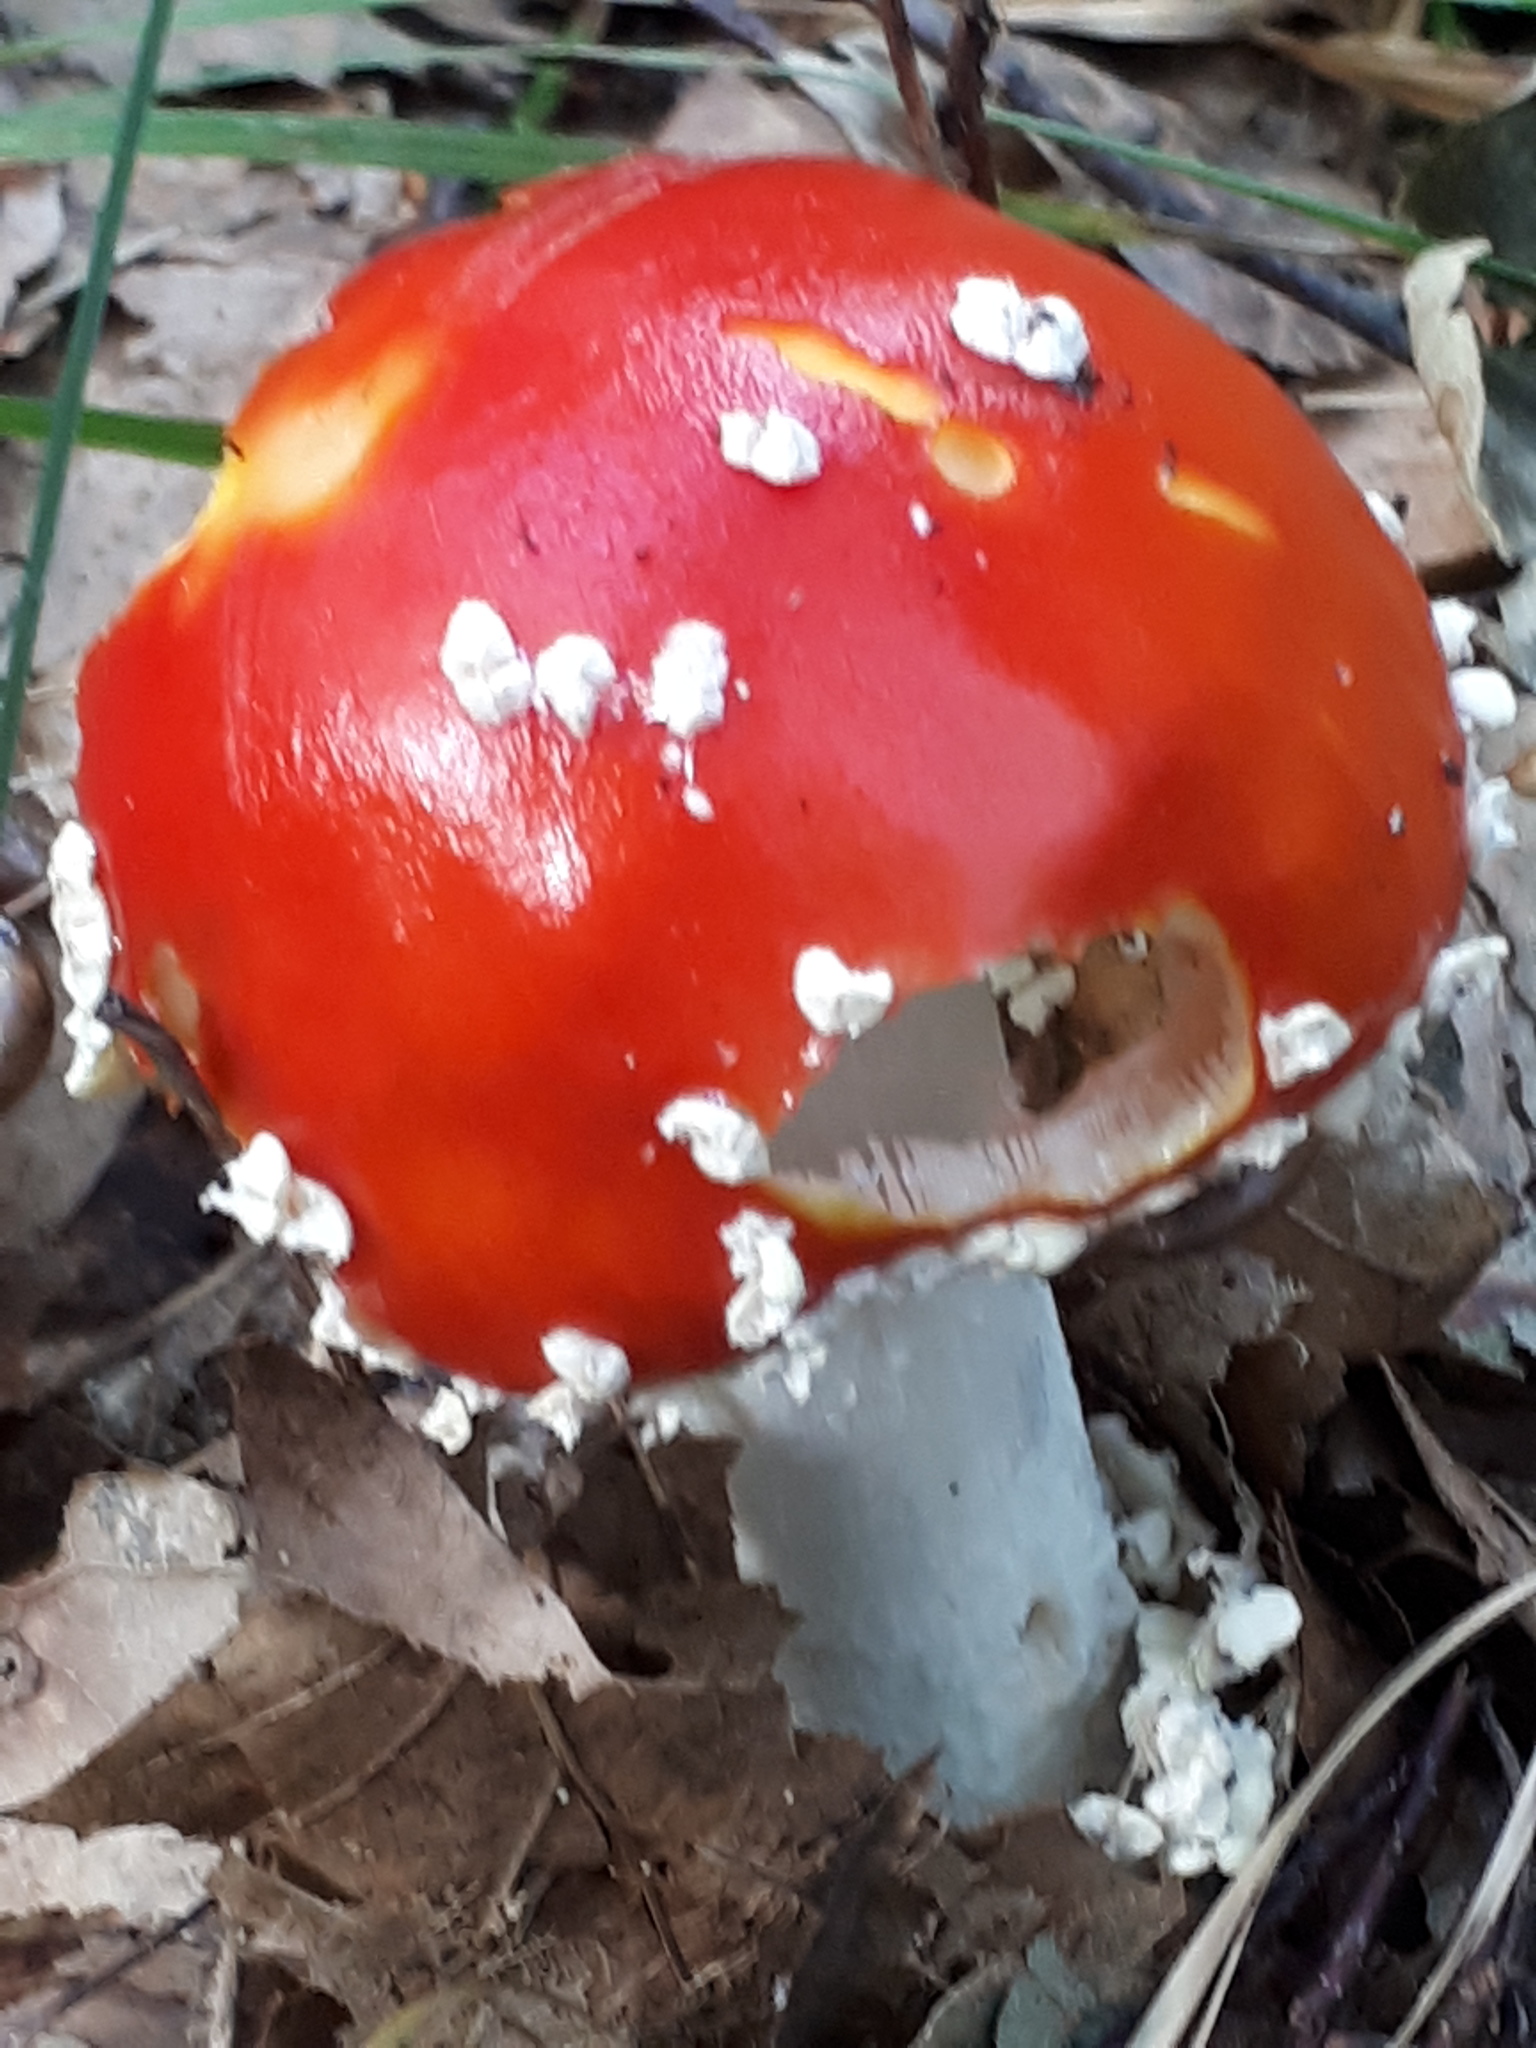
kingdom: Fungi
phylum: Basidiomycota
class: Agaricomycetes
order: Agaricales
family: Amanitaceae
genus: Amanita
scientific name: Amanita muscaria
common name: Fly agaric
